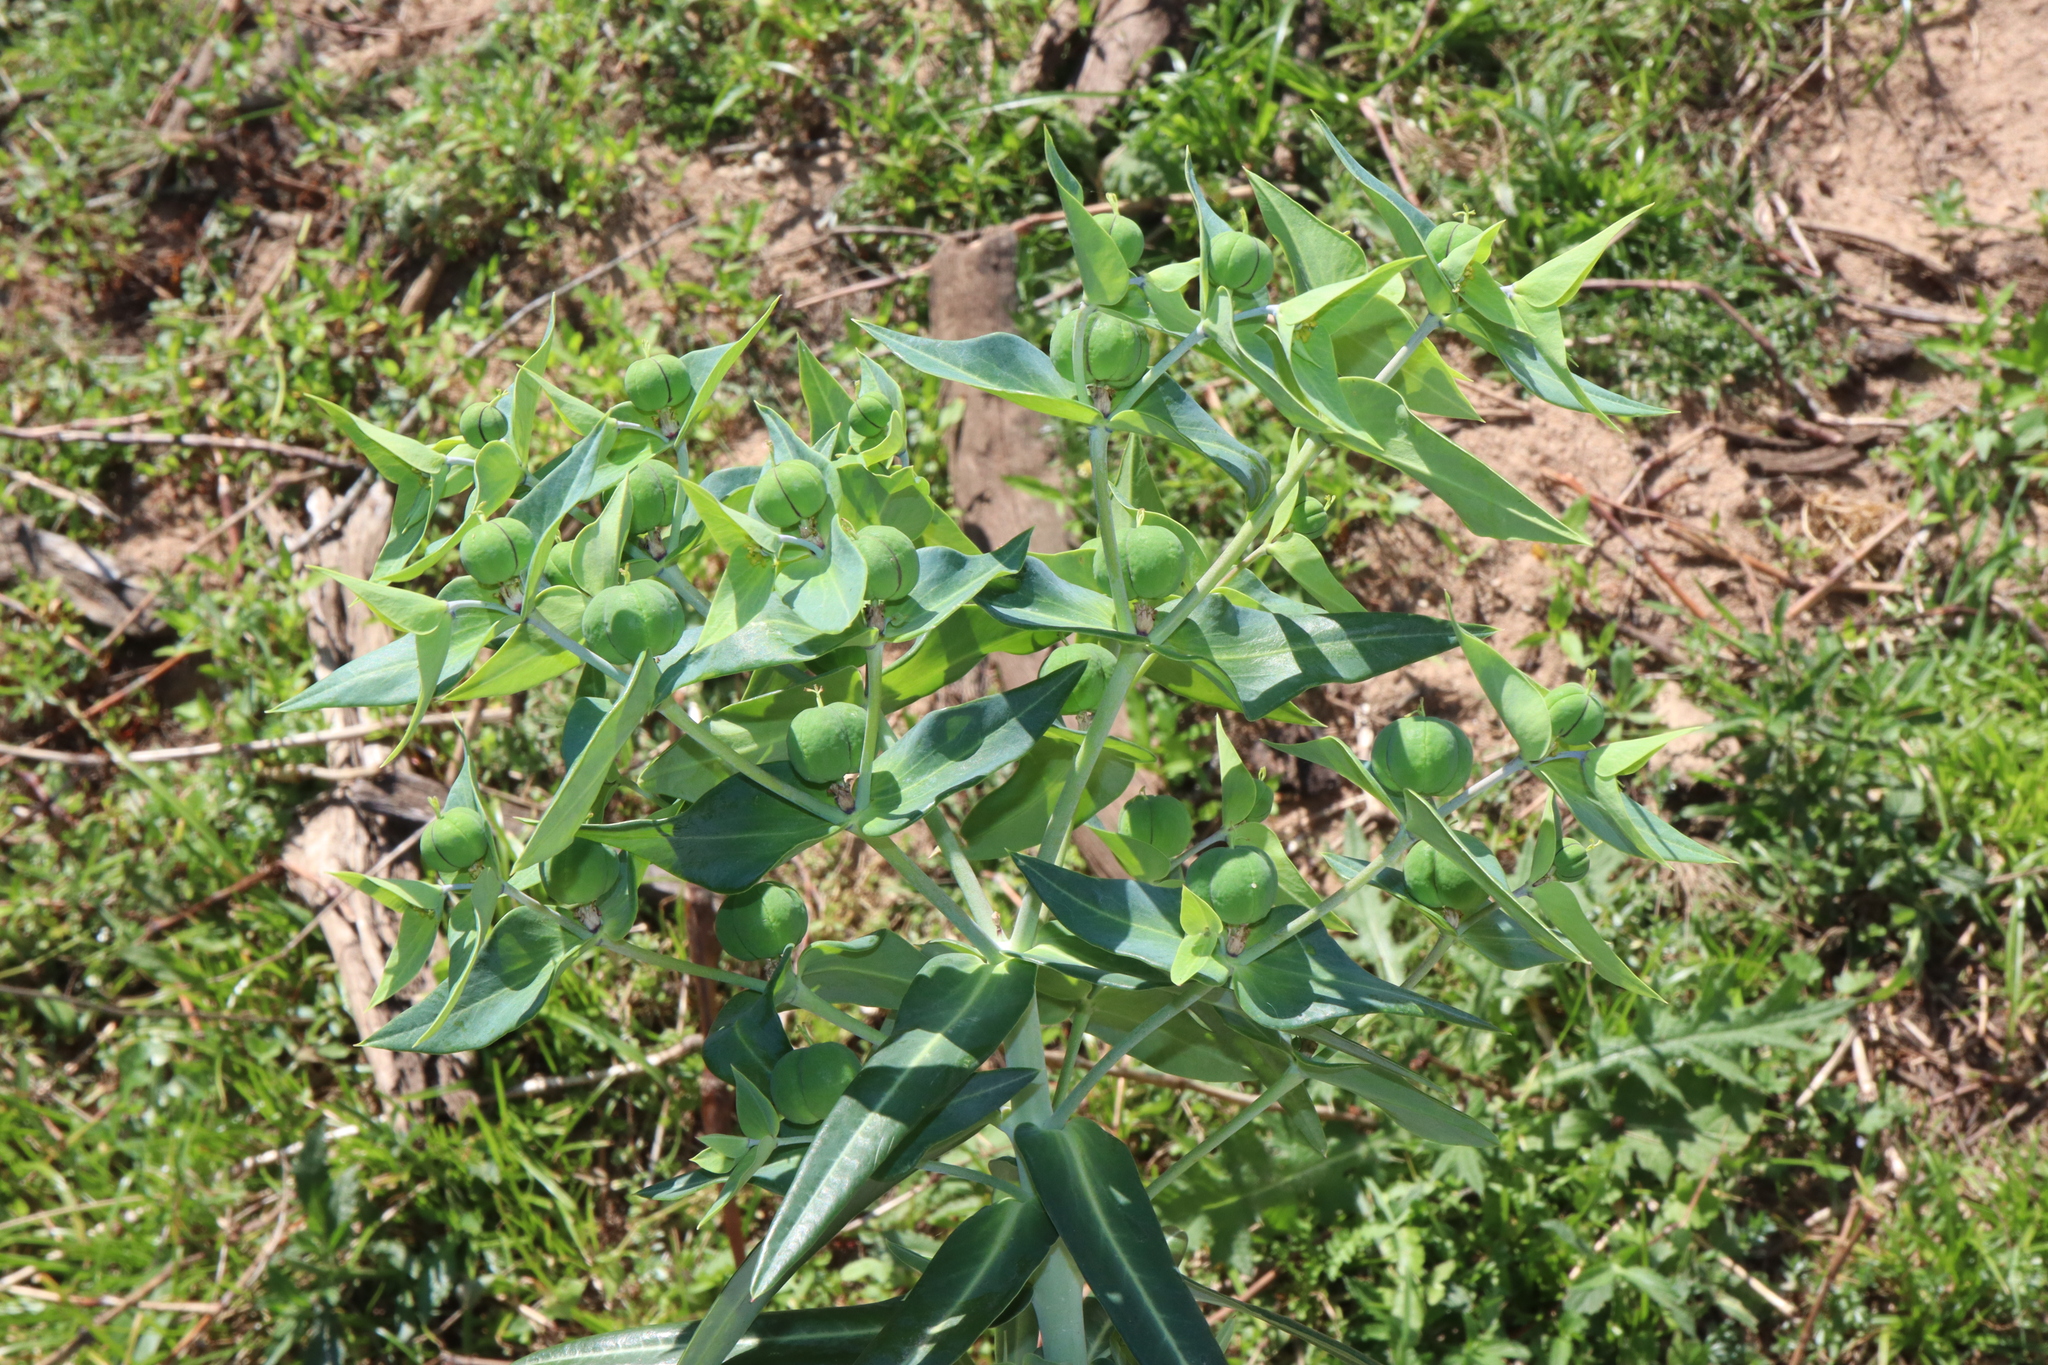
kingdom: Plantae
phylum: Tracheophyta
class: Magnoliopsida
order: Malpighiales
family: Euphorbiaceae
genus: Euphorbia
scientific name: Euphorbia lathyris
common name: Caper spurge
